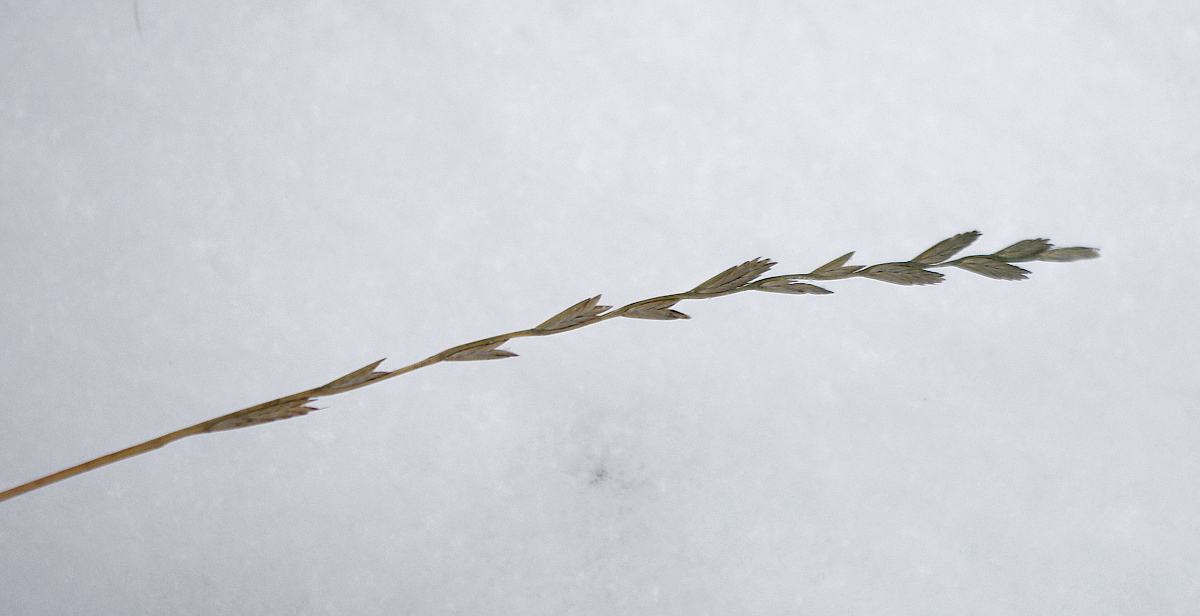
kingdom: Plantae
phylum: Tracheophyta
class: Liliopsida
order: Poales
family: Poaceae
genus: Lolium
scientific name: Lolium perenne
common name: Perennial ryegrass
